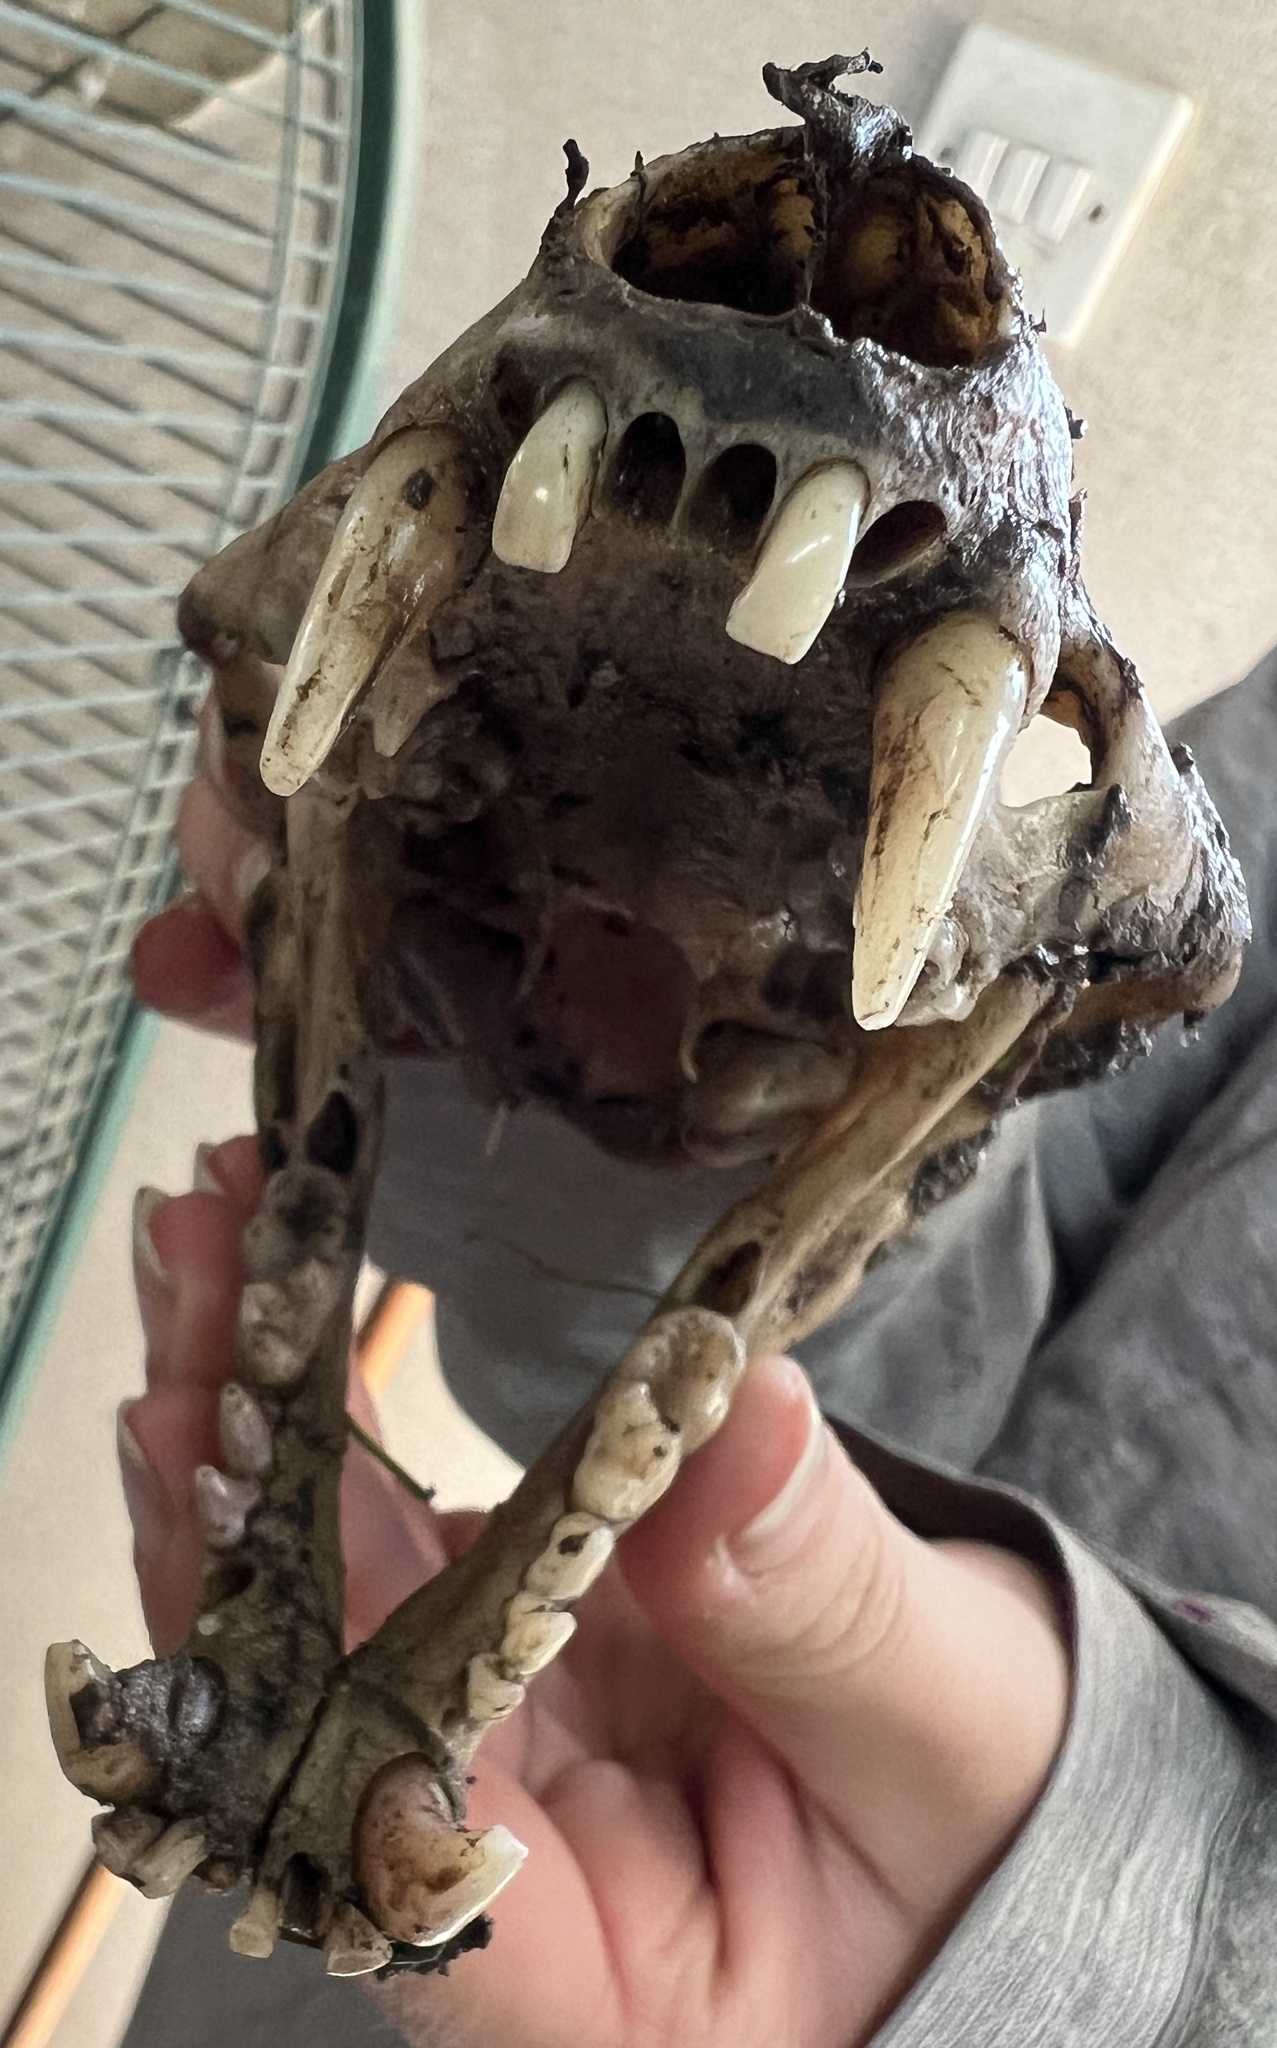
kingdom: Animalia
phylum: Chordata
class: Mammalia
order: Carnivora
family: Mustelidae
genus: Meles
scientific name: Meles meles
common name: Eurasian badger
